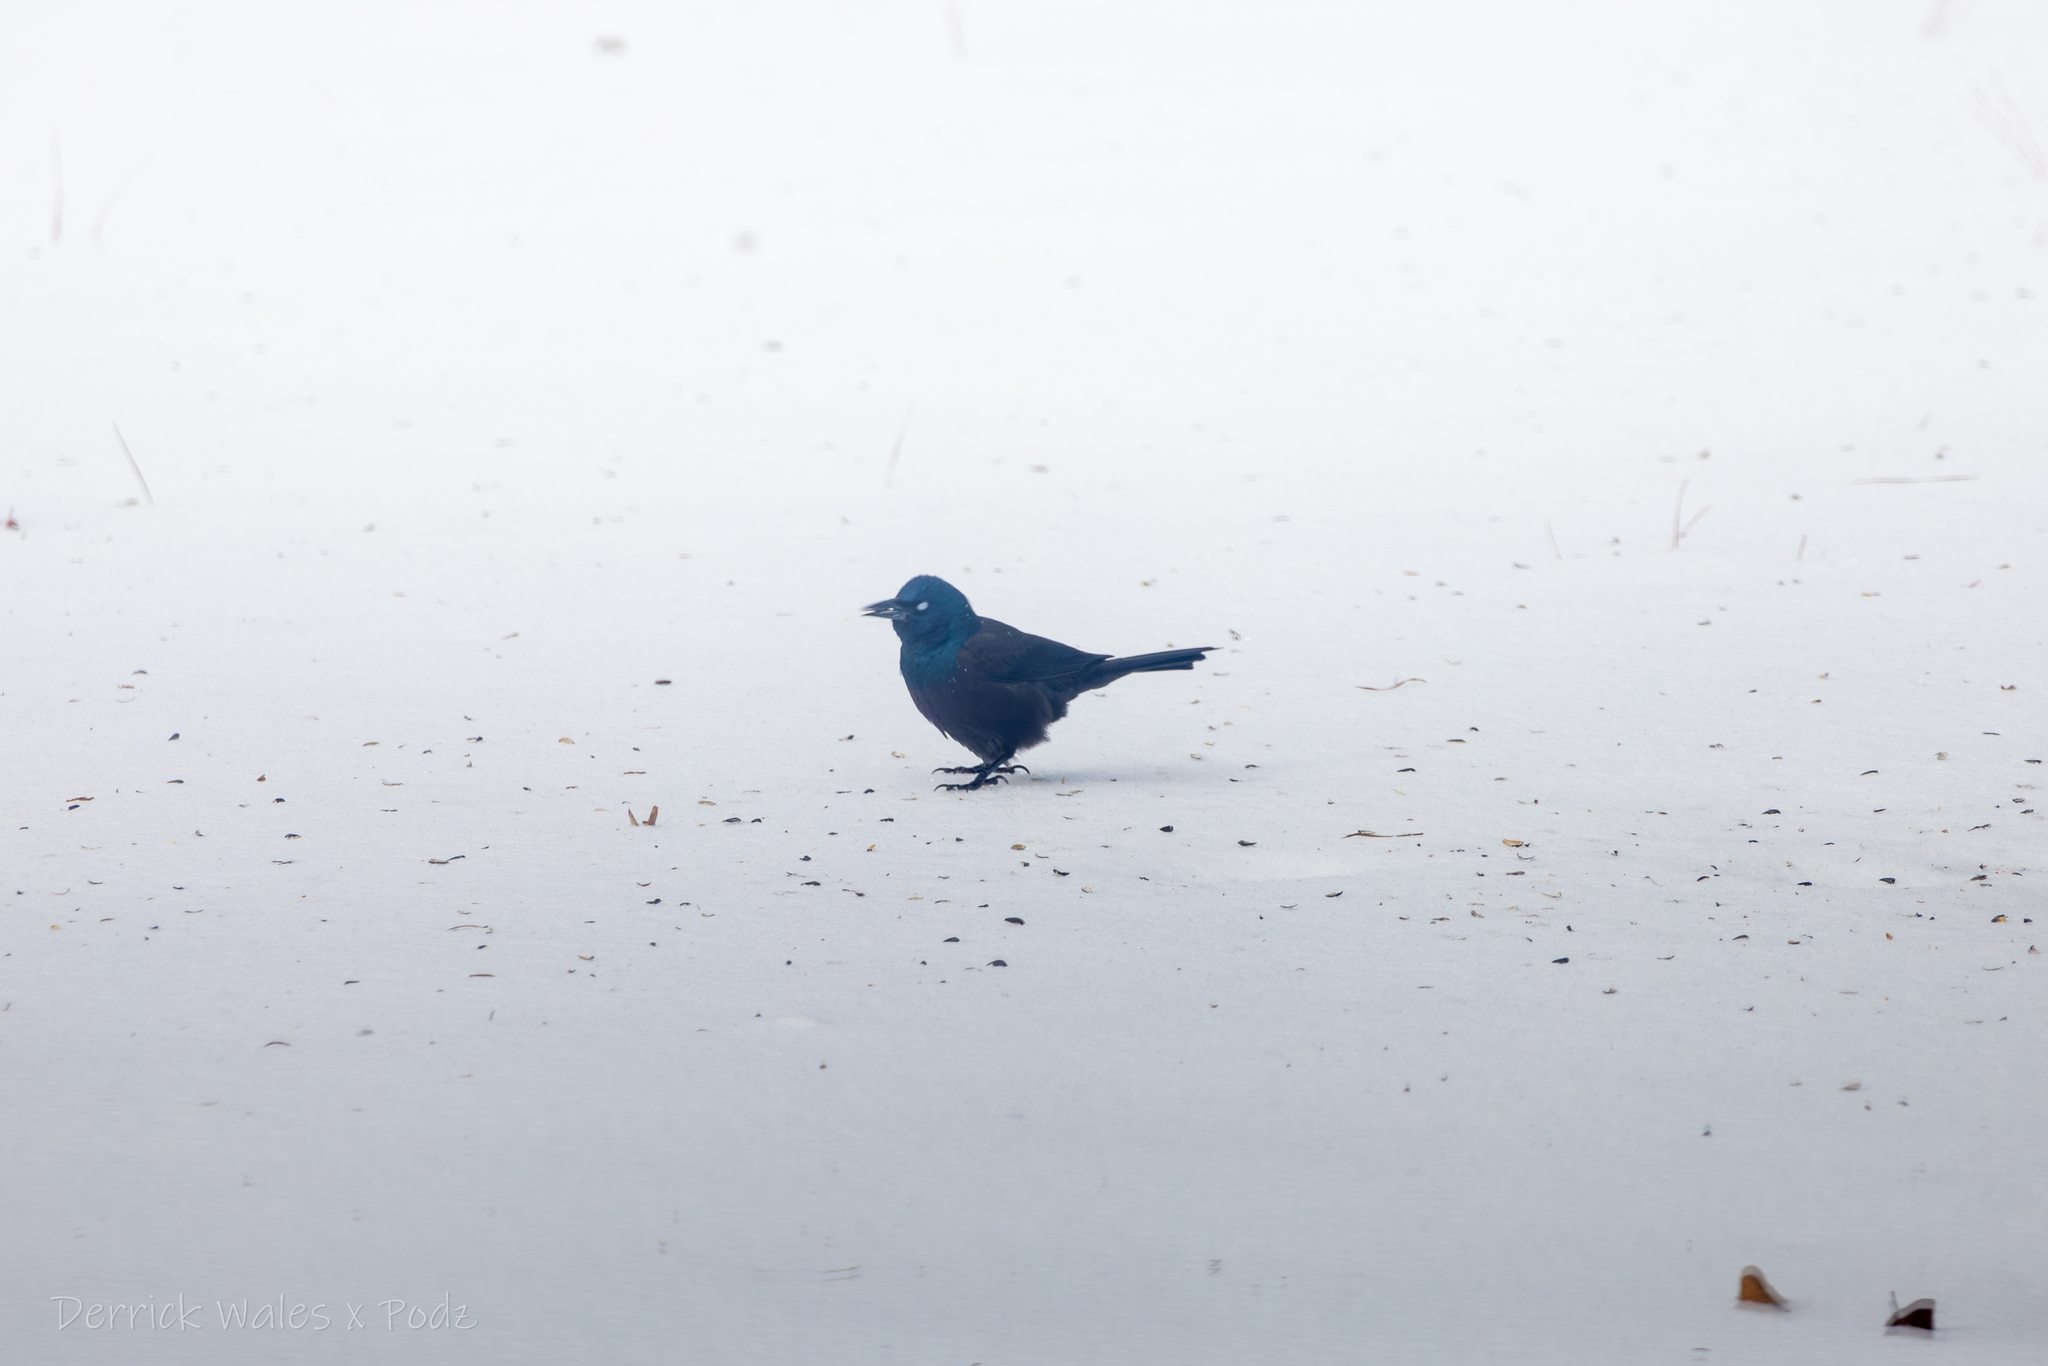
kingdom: Animalia
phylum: Chordata
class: Aves
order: Passeriformes
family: Icteridae
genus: Quiscalus
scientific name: Quiscalus quiscula
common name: Common grackle
